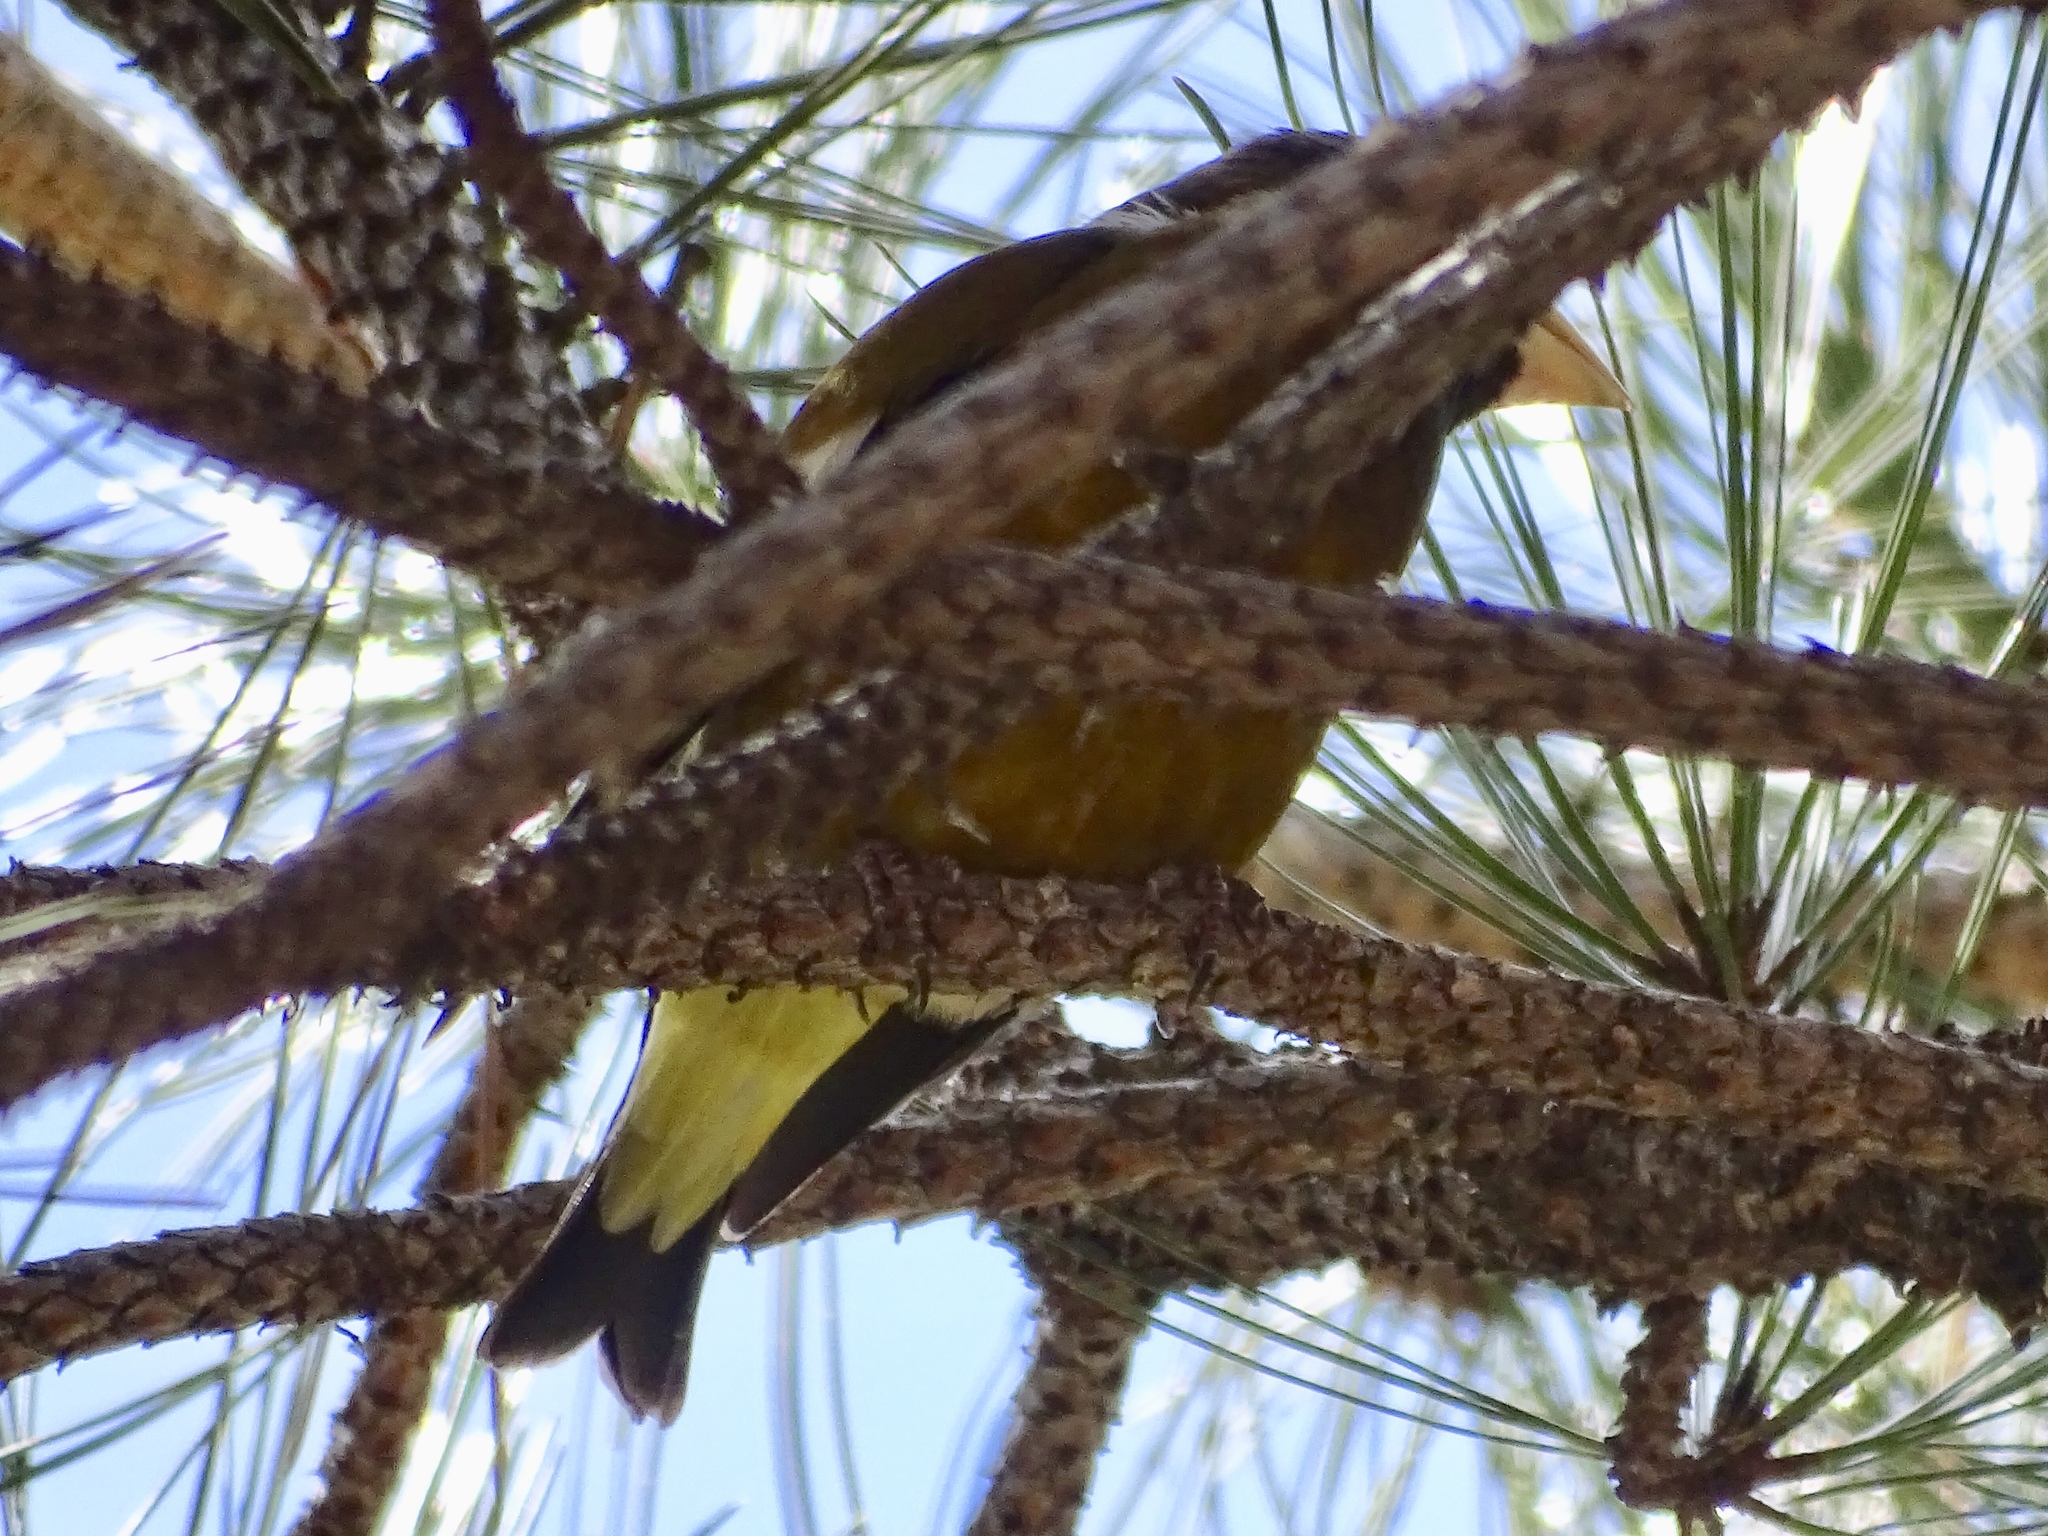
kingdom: Animalia
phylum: Chordata
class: Aves
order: Passeriformes
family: Fringillidae
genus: Hesperiphona
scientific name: Hesperiphona vespertina
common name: Evening grosbeak
